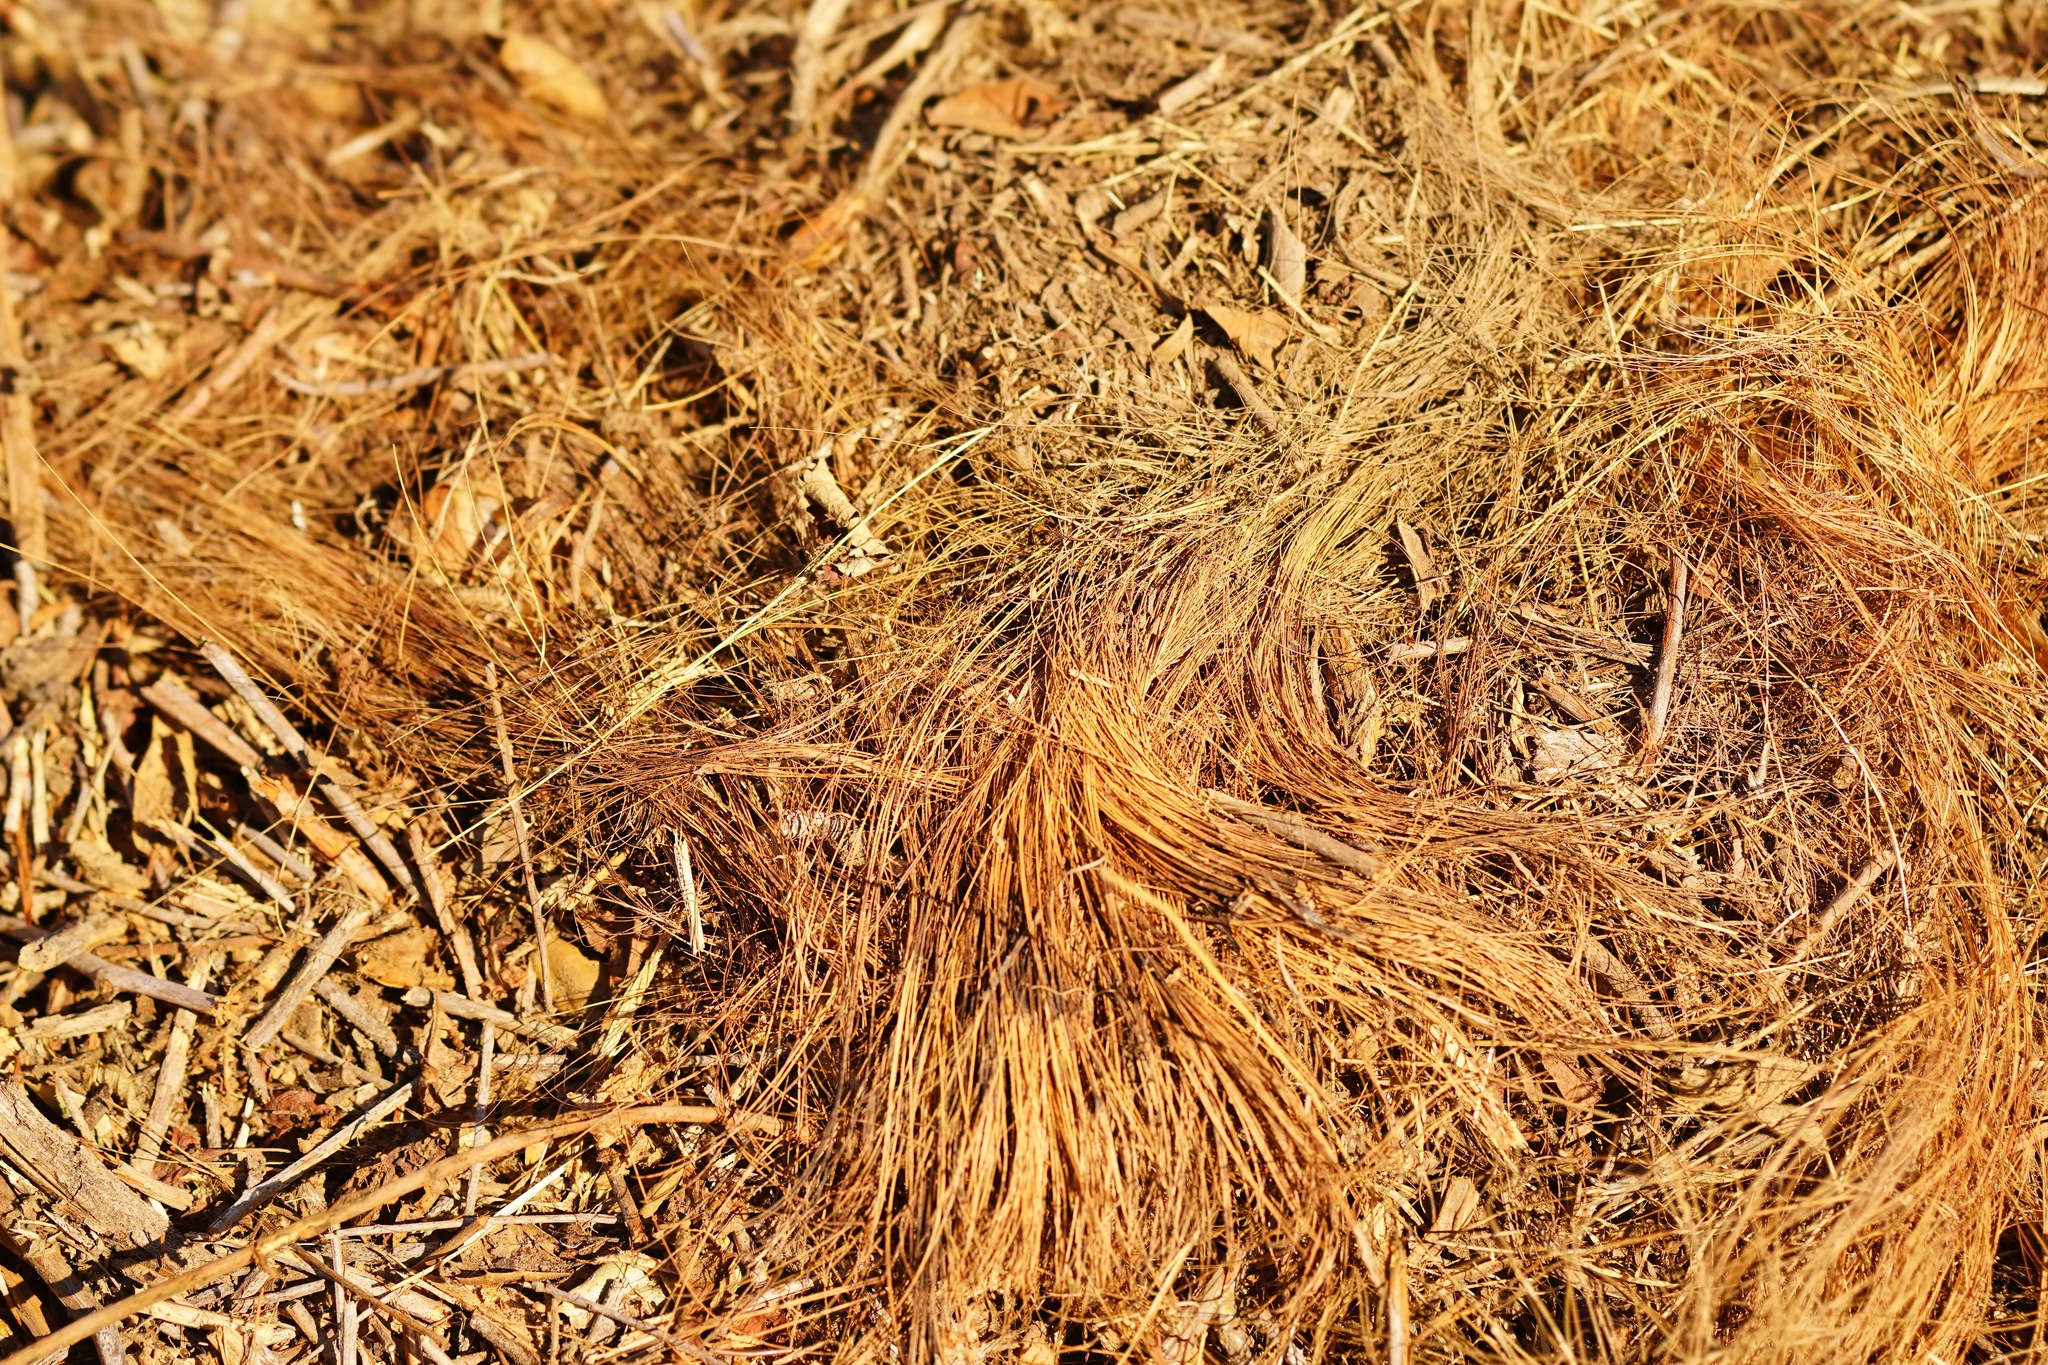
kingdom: Plantae
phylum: Tracheophyta
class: Liliopsida
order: Asparagales
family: Asparagaceae
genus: Chlorogalum
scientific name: Chlorogalum pomeridianum
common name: Amole
